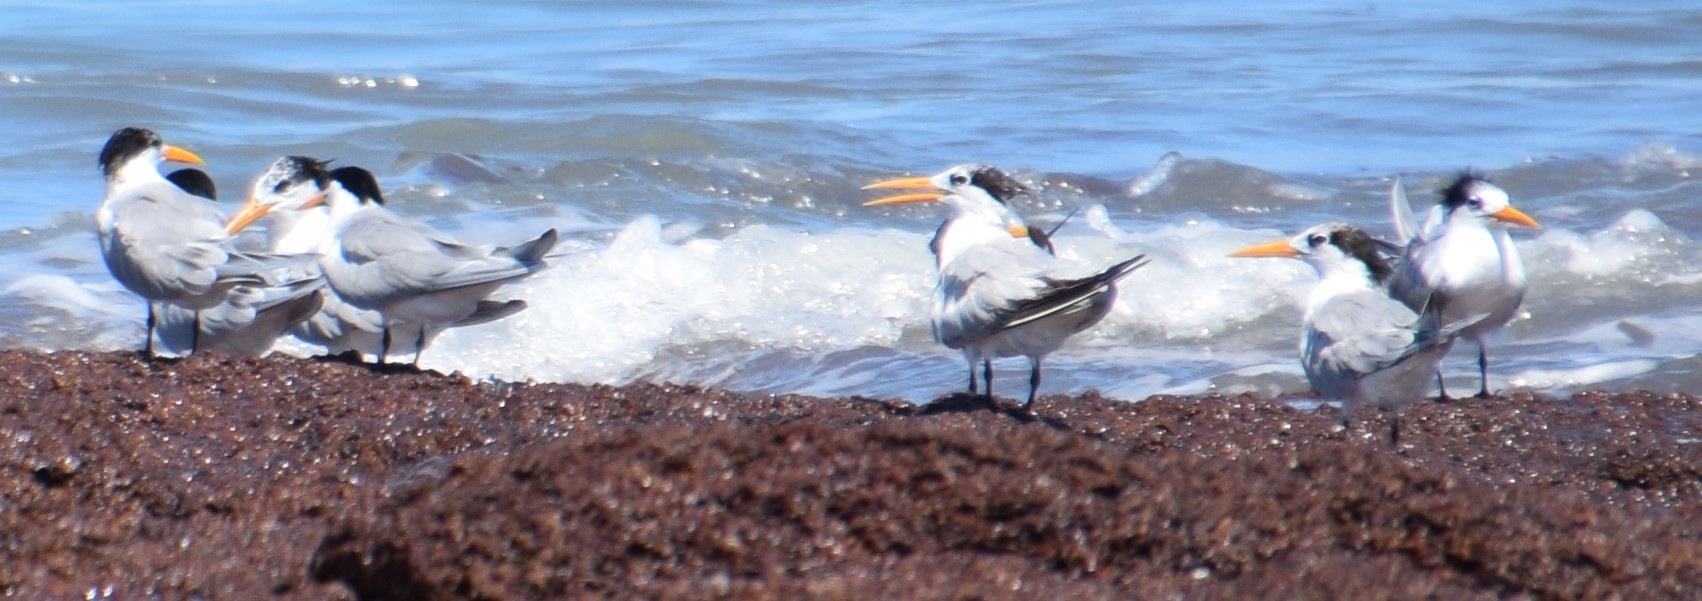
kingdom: Animalia
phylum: Chordata
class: Aves
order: Charadriiformes
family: Laridae
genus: Thalasseus
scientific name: Thalasseus bengalensis
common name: Lesser crested tern
